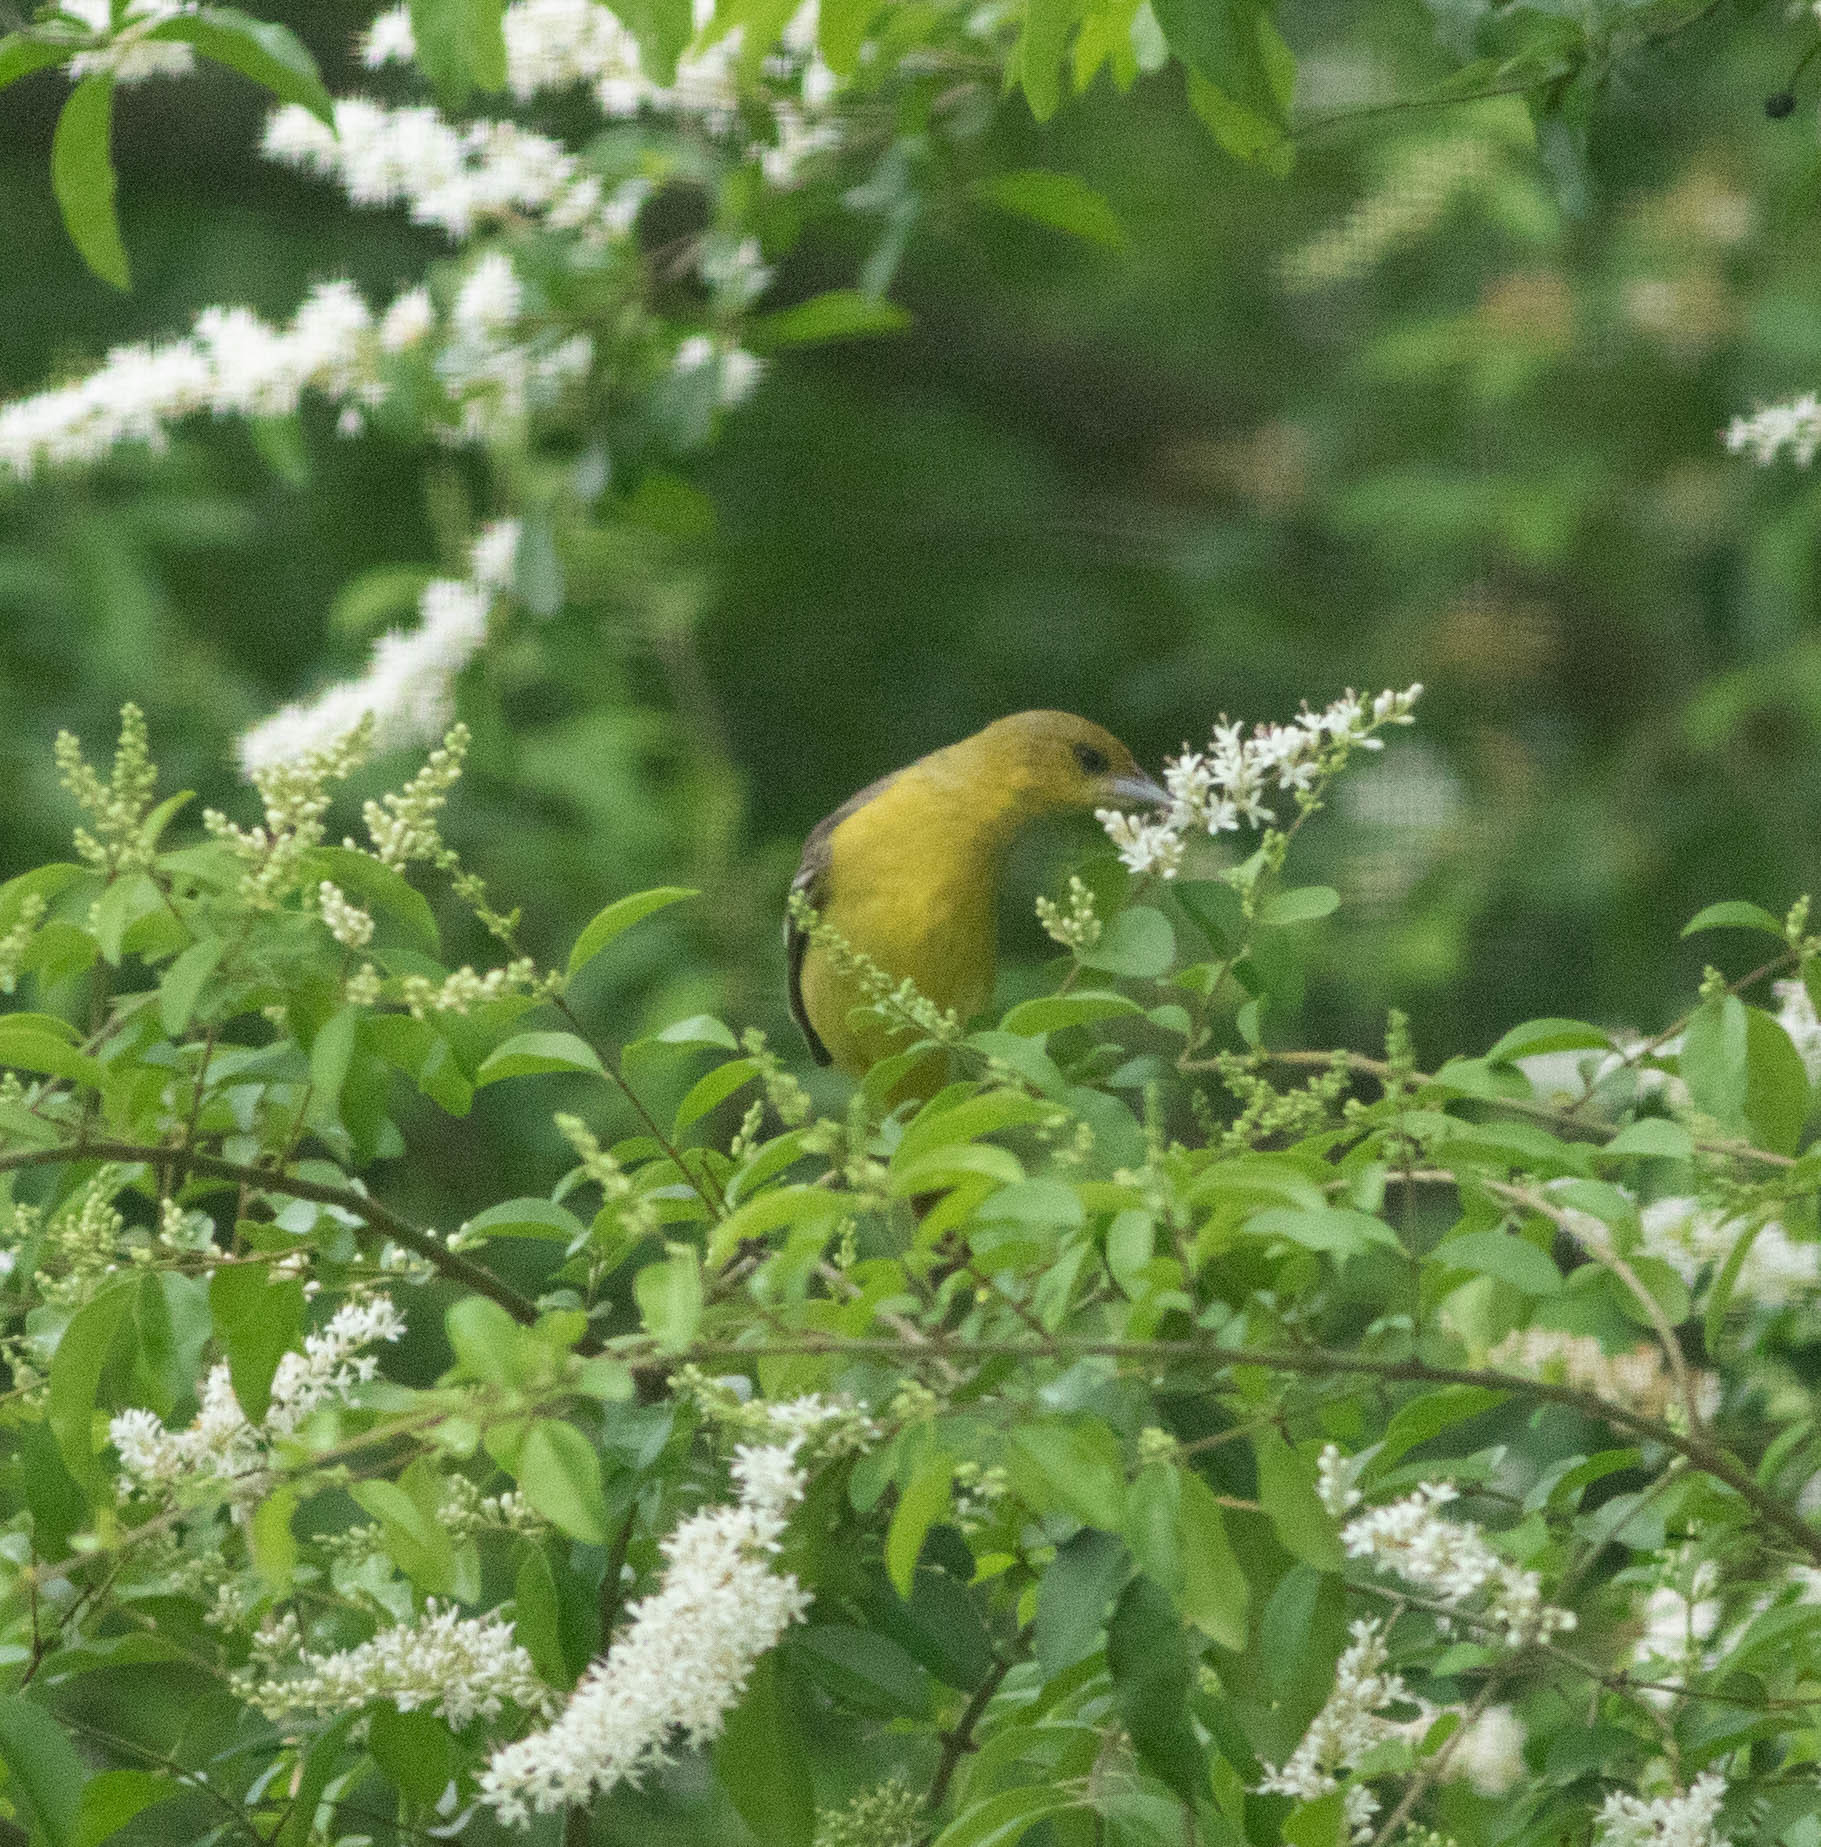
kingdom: Animalia
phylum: Chordata
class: Aves
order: Passeriformes
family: Icteridae
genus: Icterus
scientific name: Icterus spurius
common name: Orchard oriole
